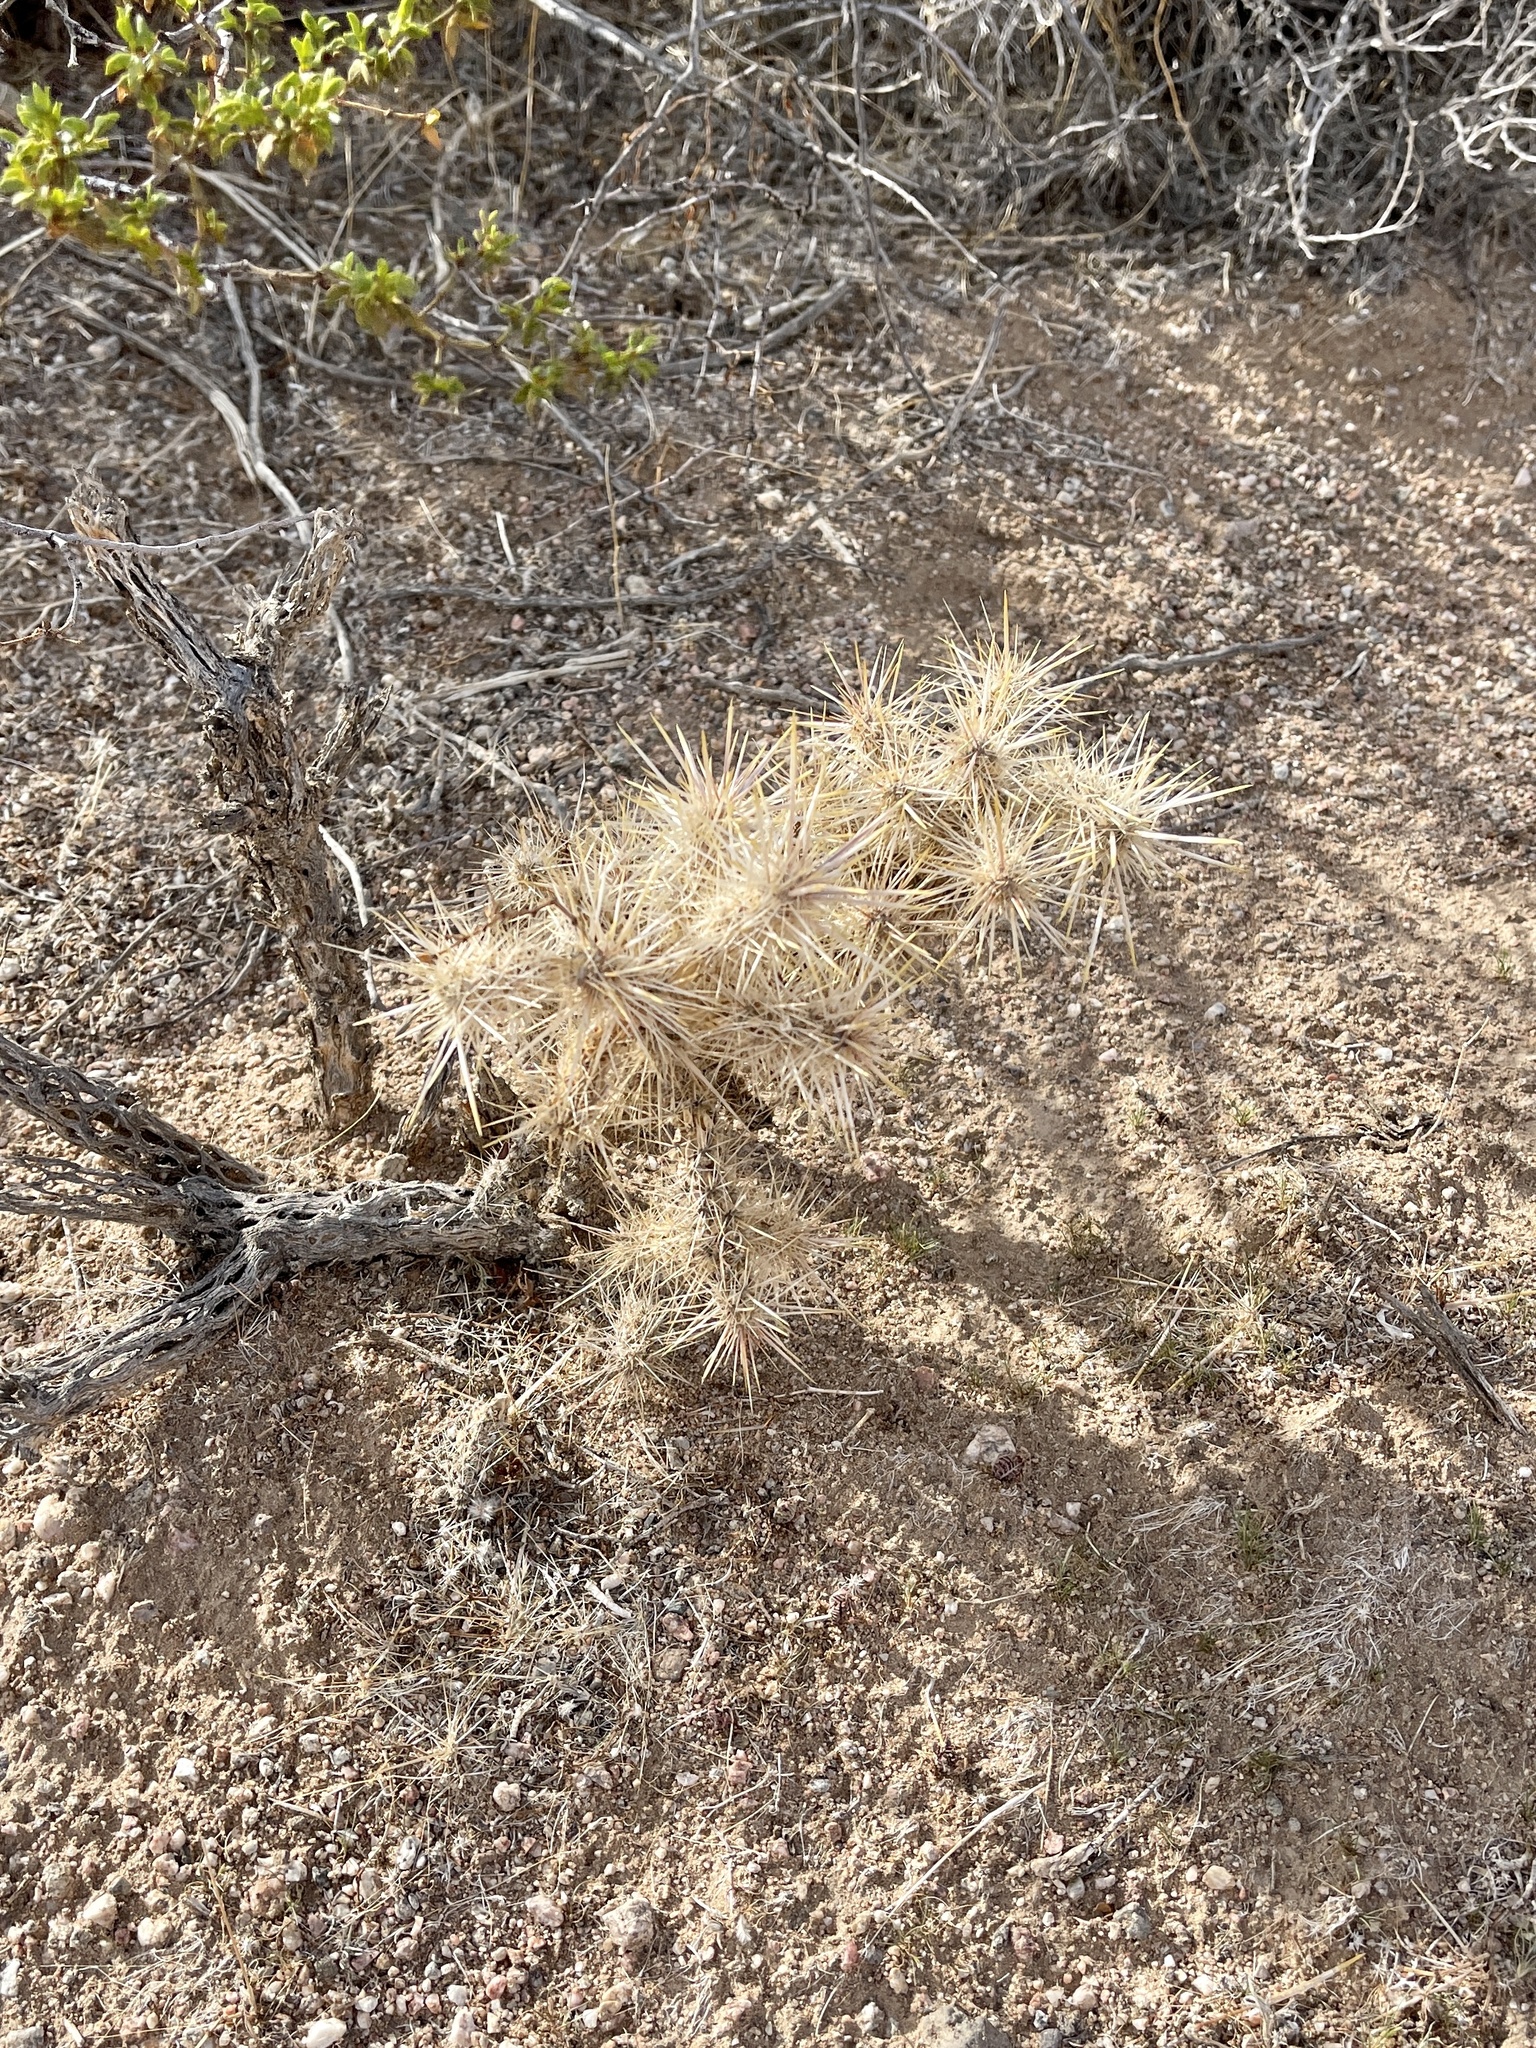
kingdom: Plantae
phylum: Tracheophyta
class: Magnoliopsida
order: Caryophyllales
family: Cactaceae
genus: Cylindropuntia
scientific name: Cylindropuntia echinocarpa
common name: Ground cholla
